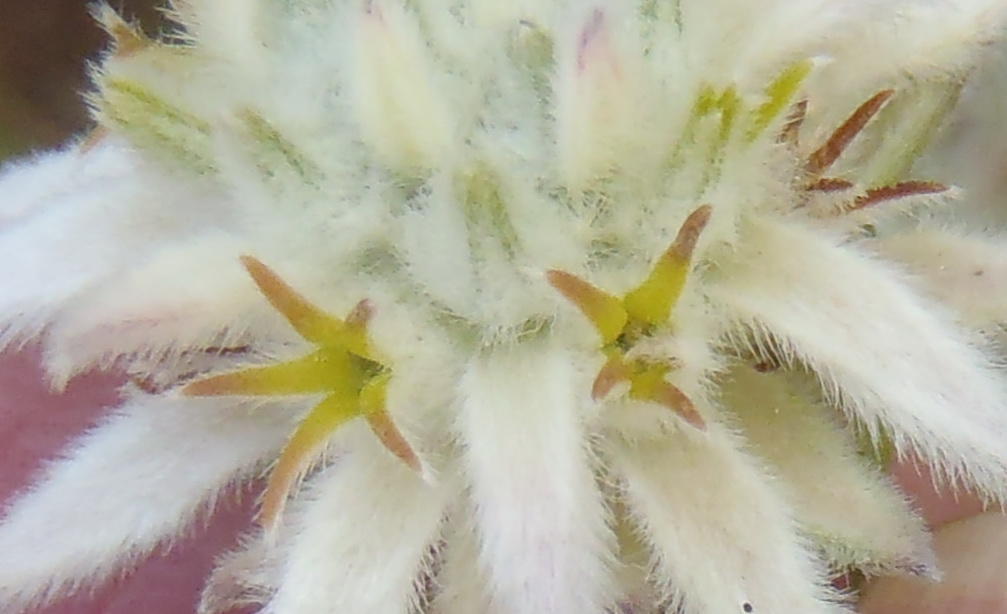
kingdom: Plantae
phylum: Tracheophyta
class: Magnoliopsida
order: Rosales
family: Rhamnaceae
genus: Phylica
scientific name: Phylica dodii
